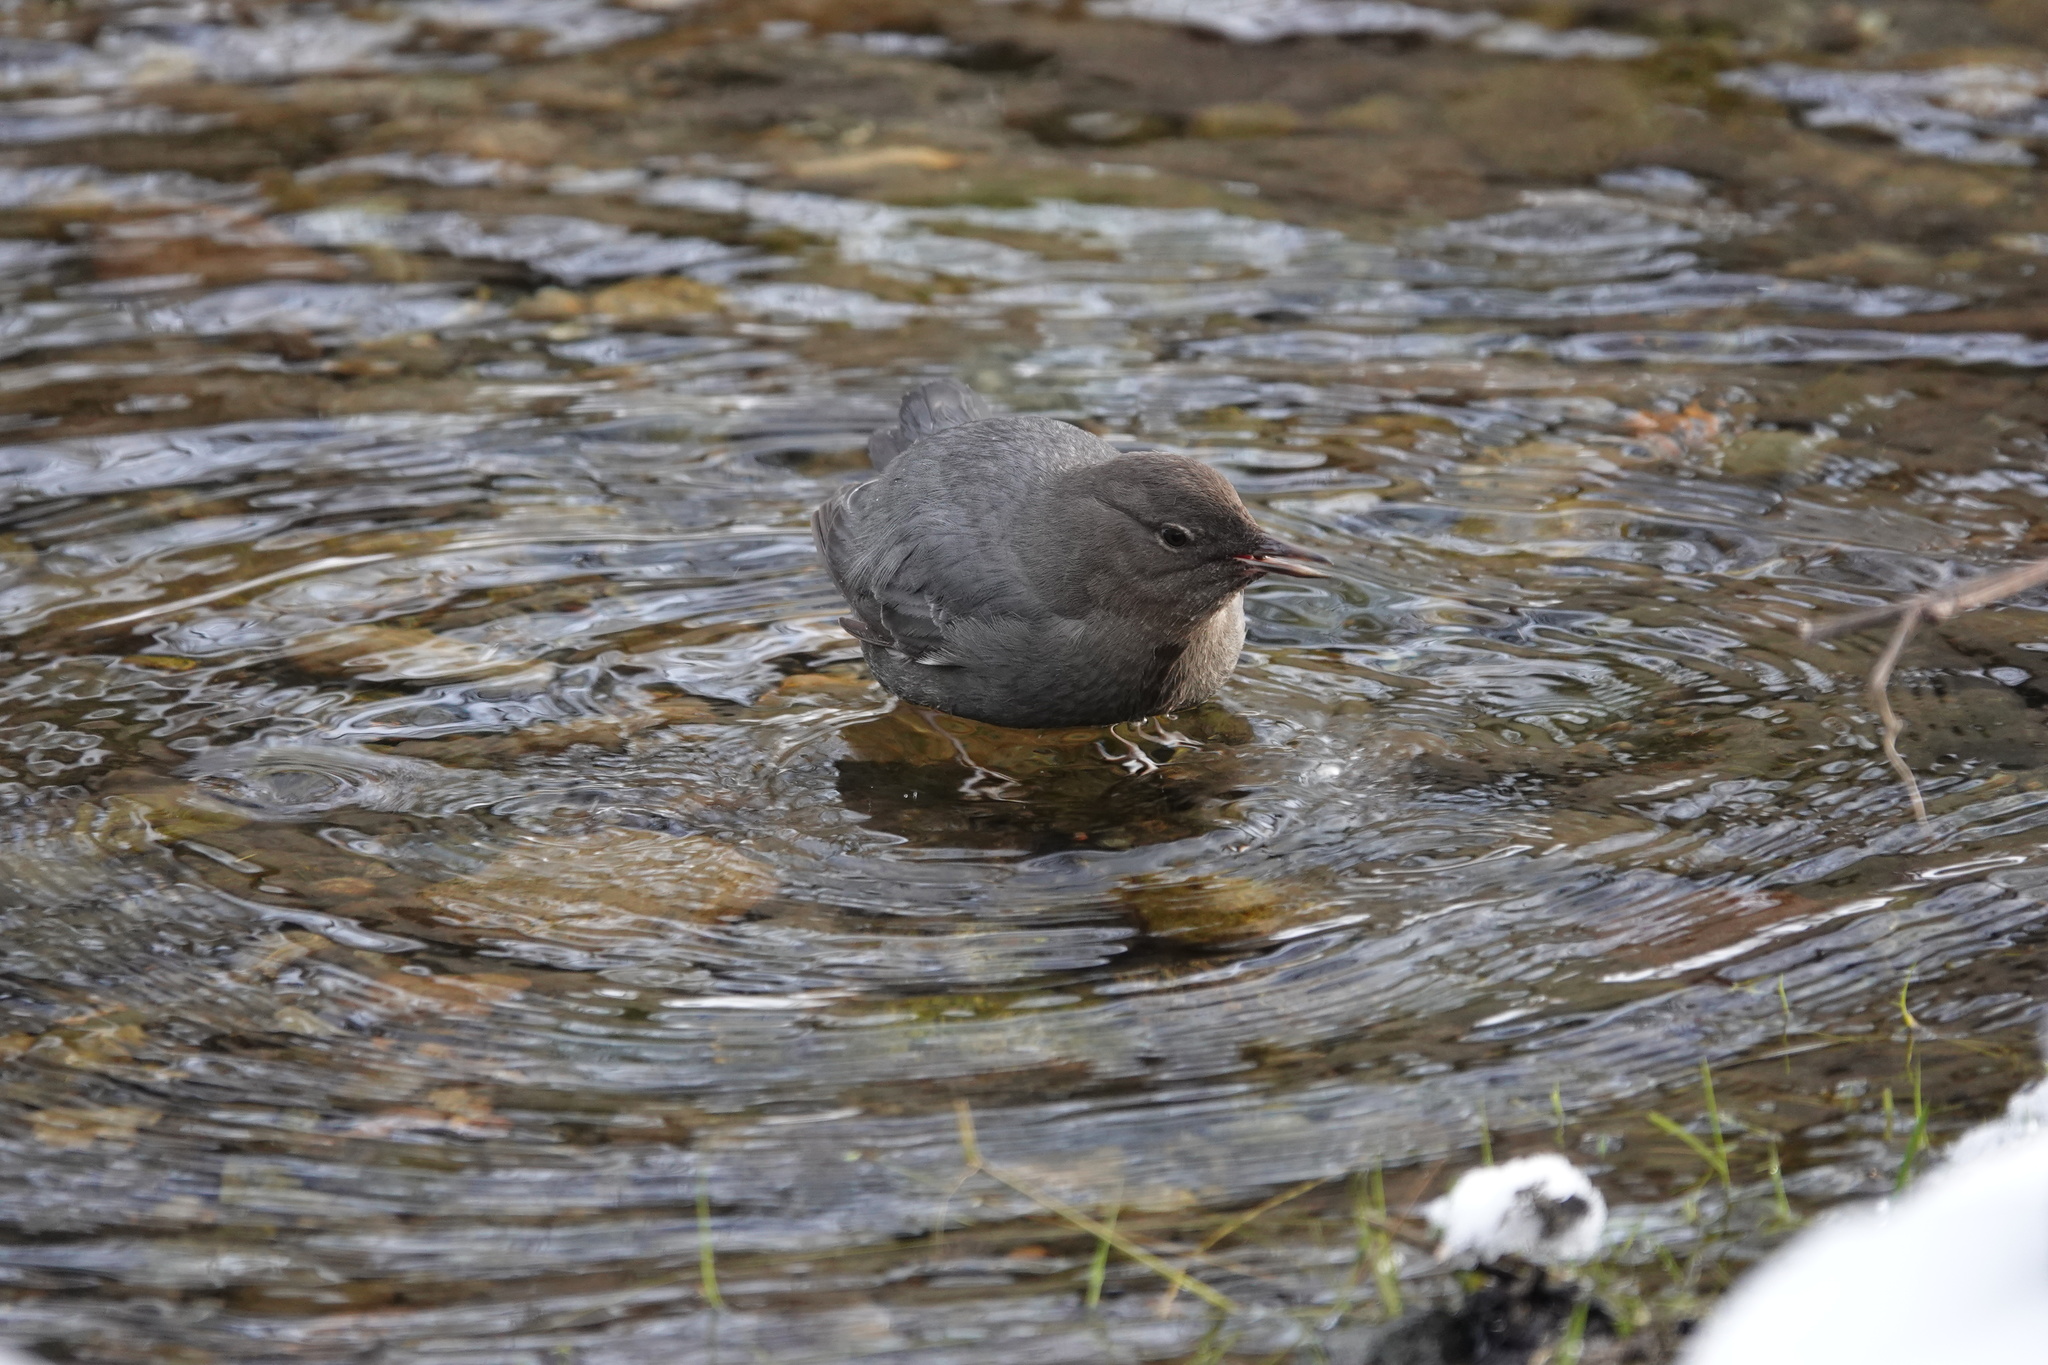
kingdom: Animalia
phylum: Chordata
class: Aves
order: Passeriformes
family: Cinclidae
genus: Cinclus
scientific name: Cinclus mexicanus
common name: American dipper
